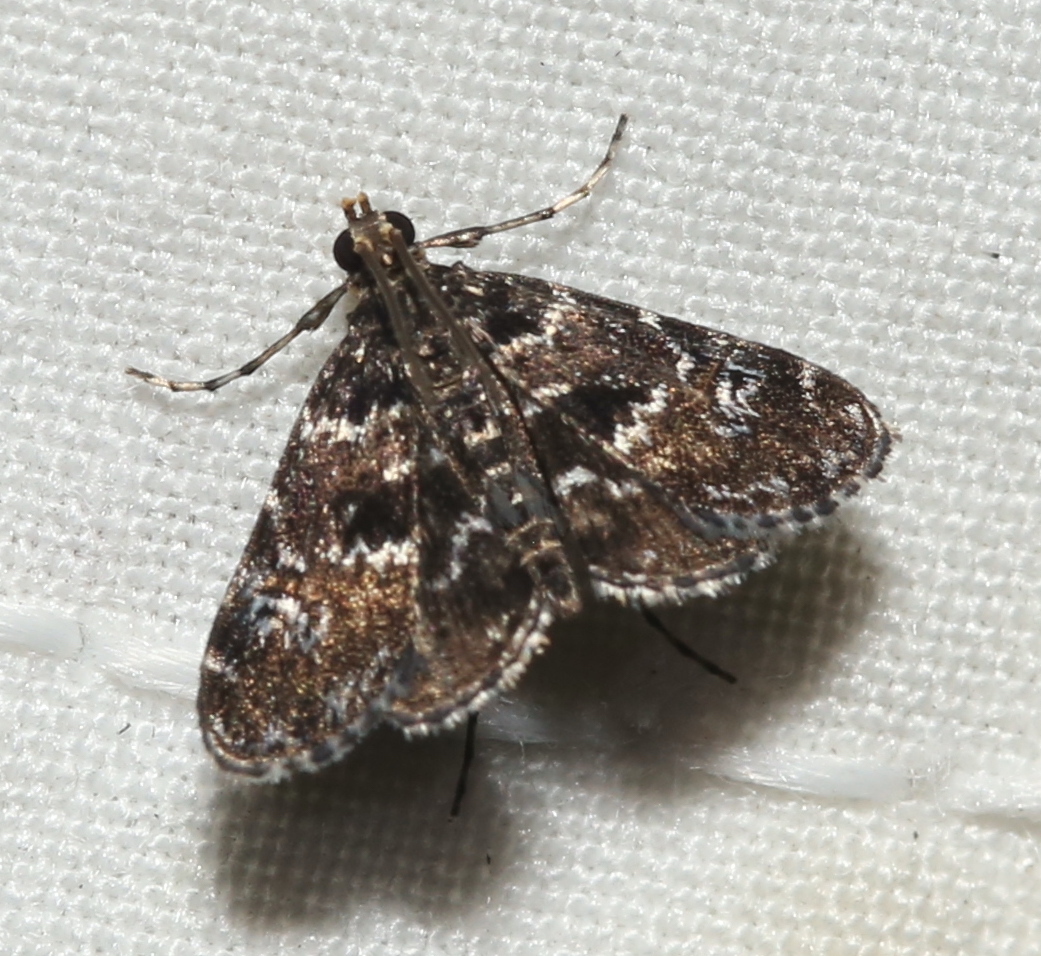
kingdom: Animalia
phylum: Arthropoda
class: Insecta
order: Lepidoptera
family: Crambidae
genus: Elophila
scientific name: Elophila obliteralis
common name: Waterlily leafcutter moth
